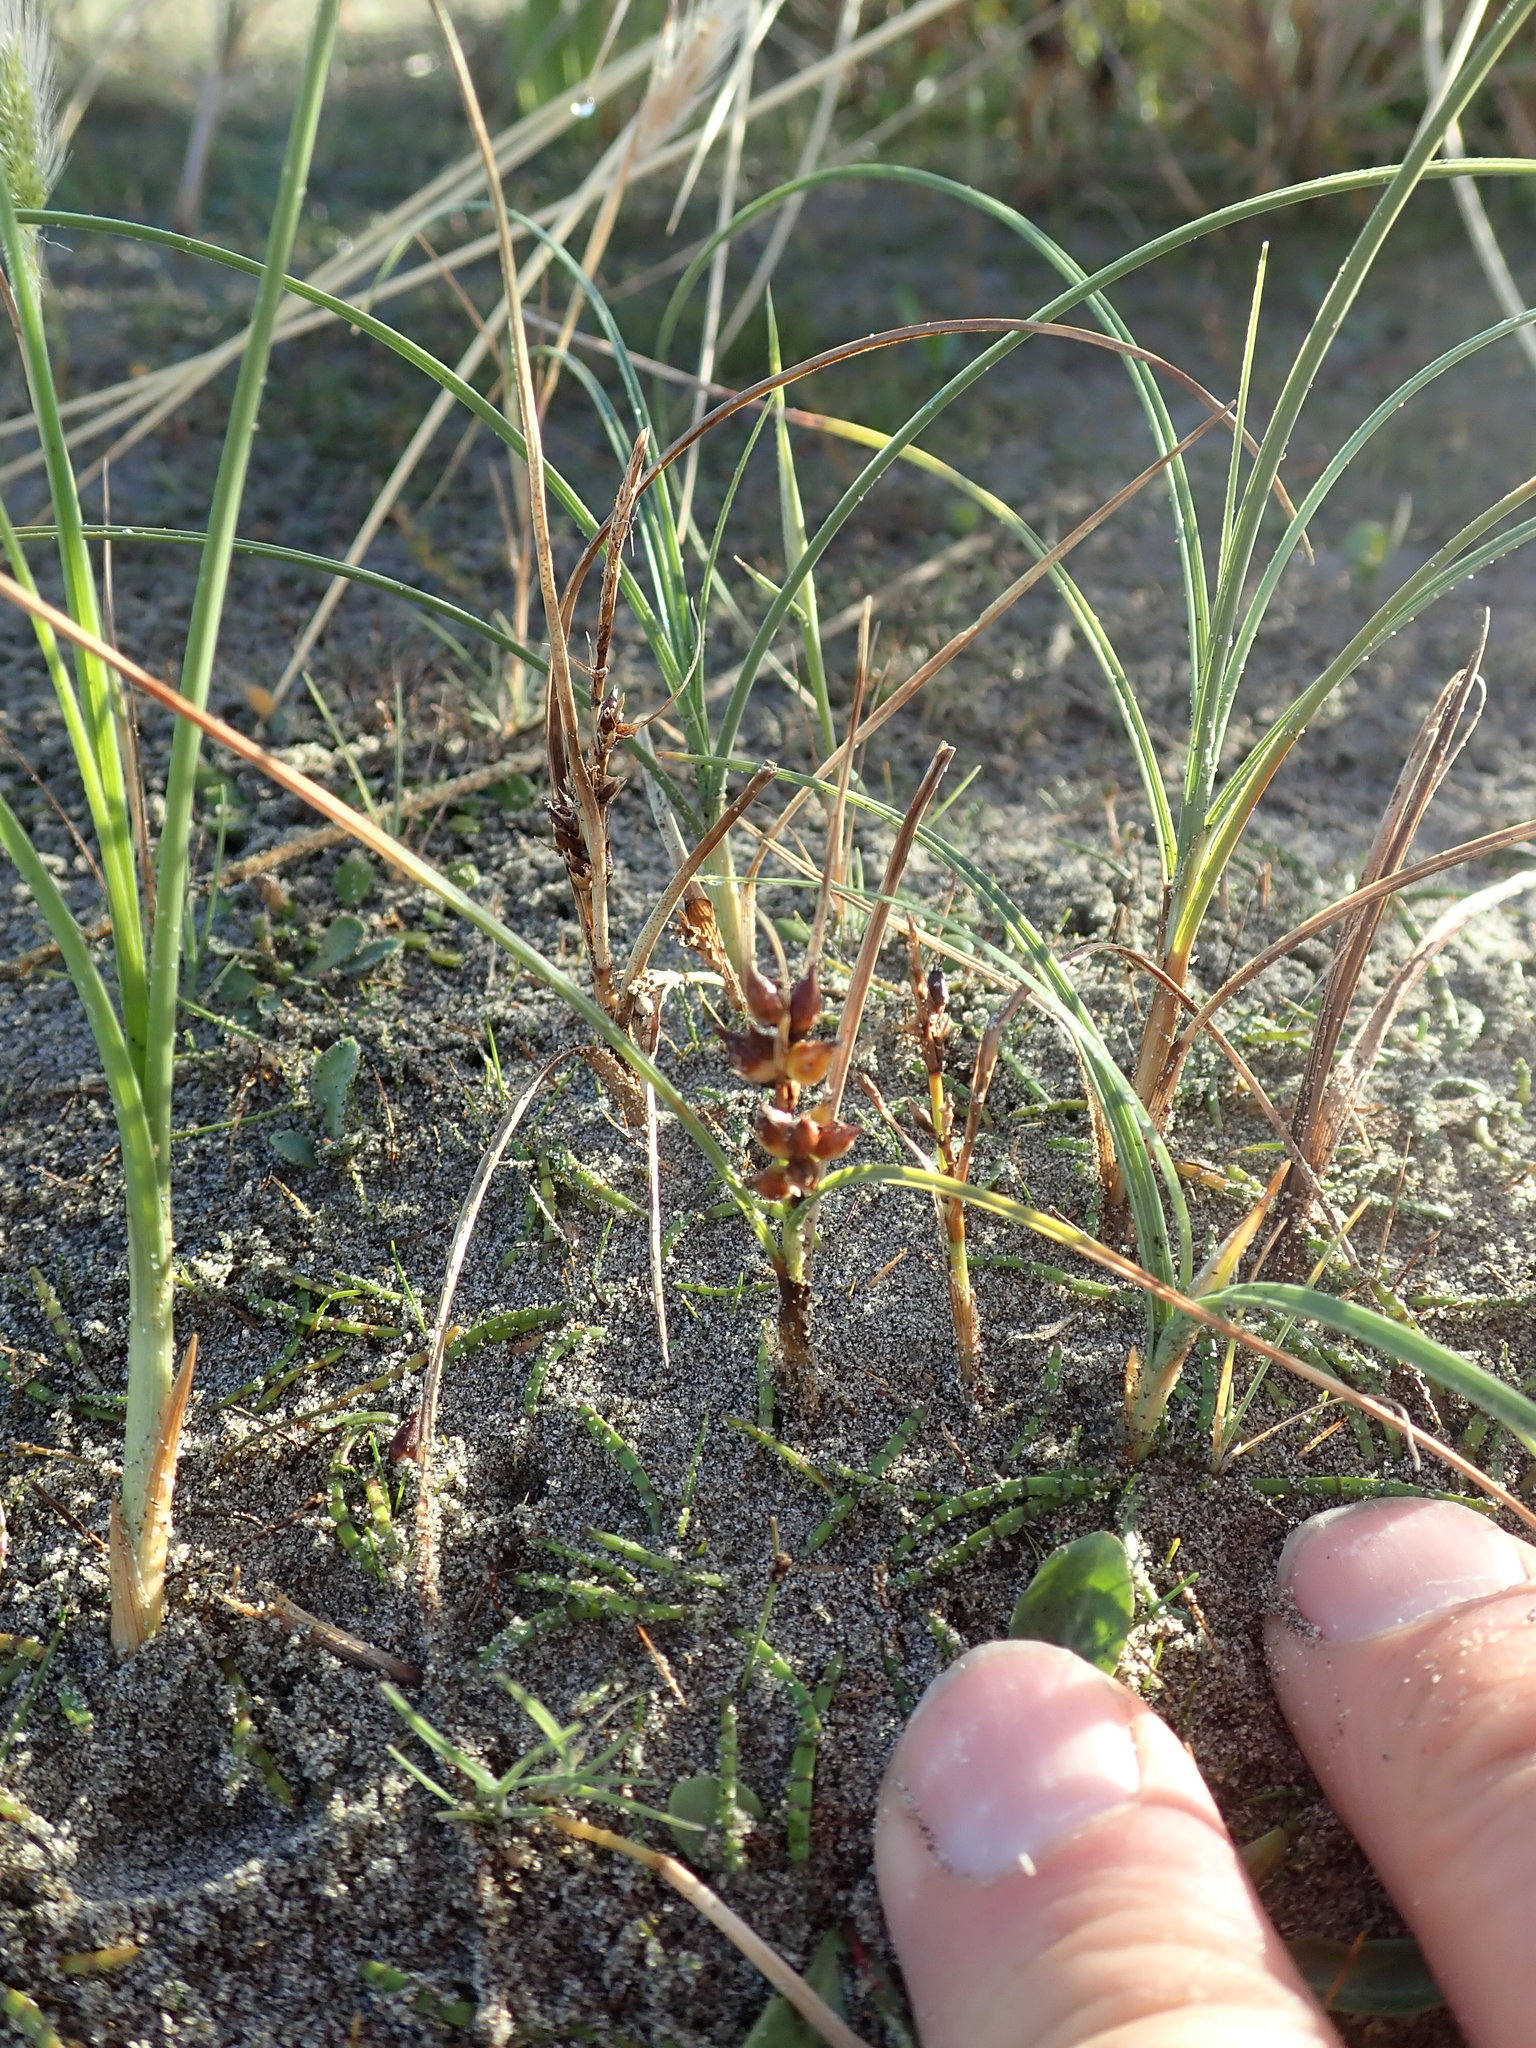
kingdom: Plantae
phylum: Tracheophyta
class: Liliopsida
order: Poales
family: Cyperaceae
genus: Carex
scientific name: Carex pumila
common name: Dwarf sedge
